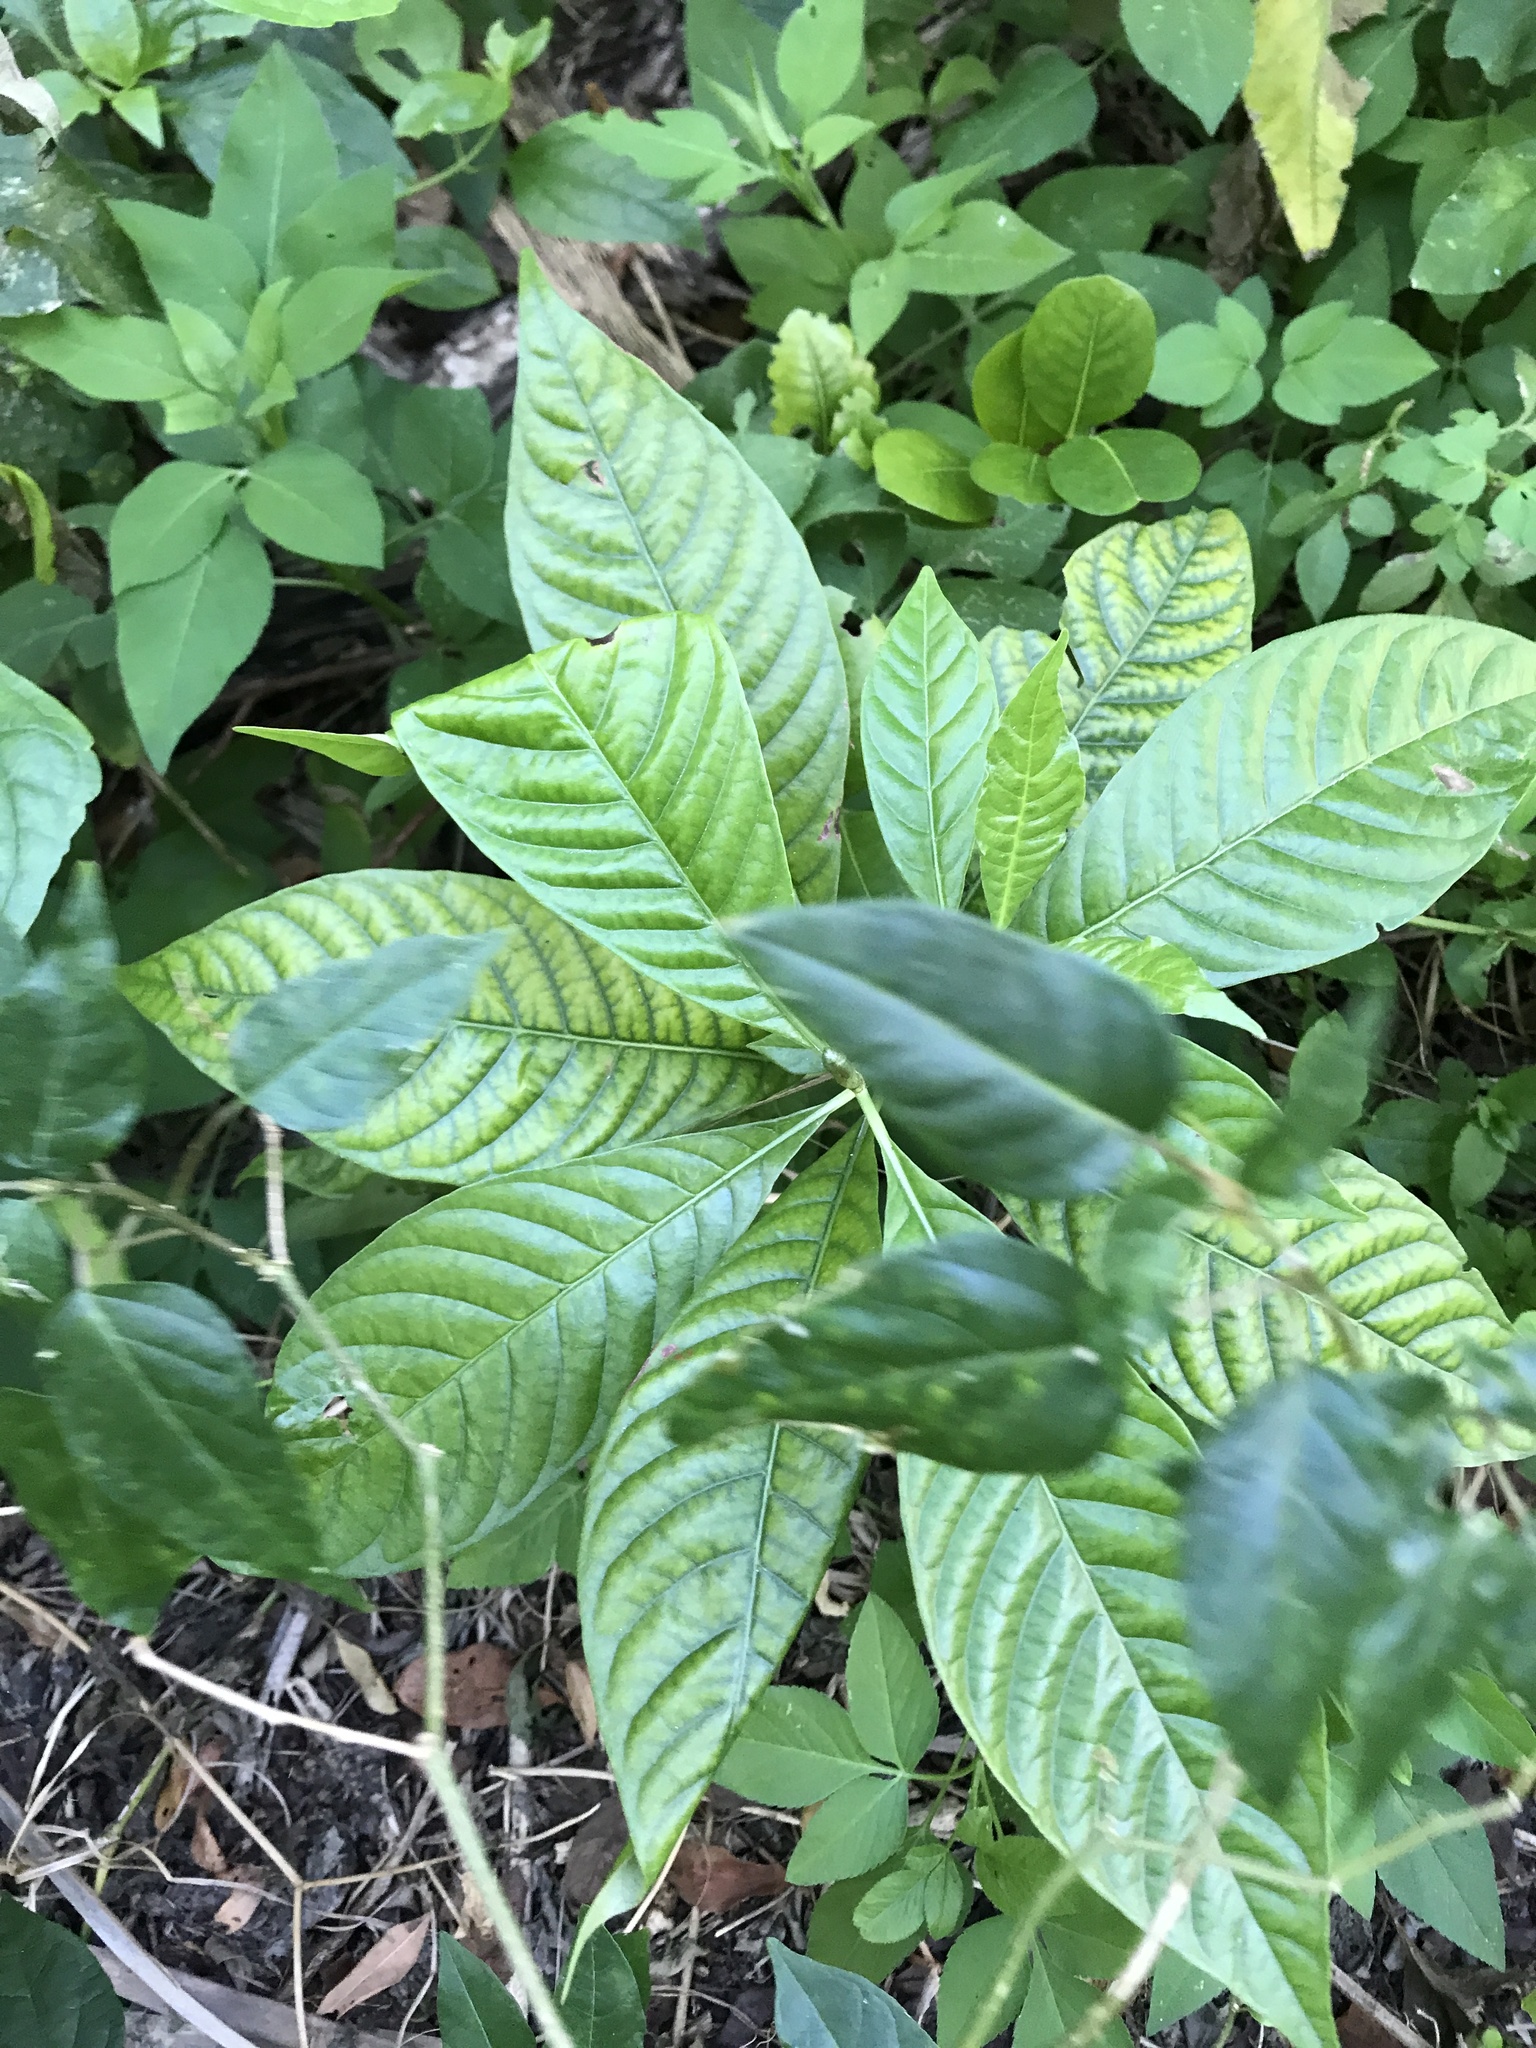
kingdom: Plantae
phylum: Tracheophyta
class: Magnoliopsida
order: Gentianales
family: Rubiaceae
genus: Psychotria
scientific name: Psychotria nervosa
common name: Bastard cankerberry
